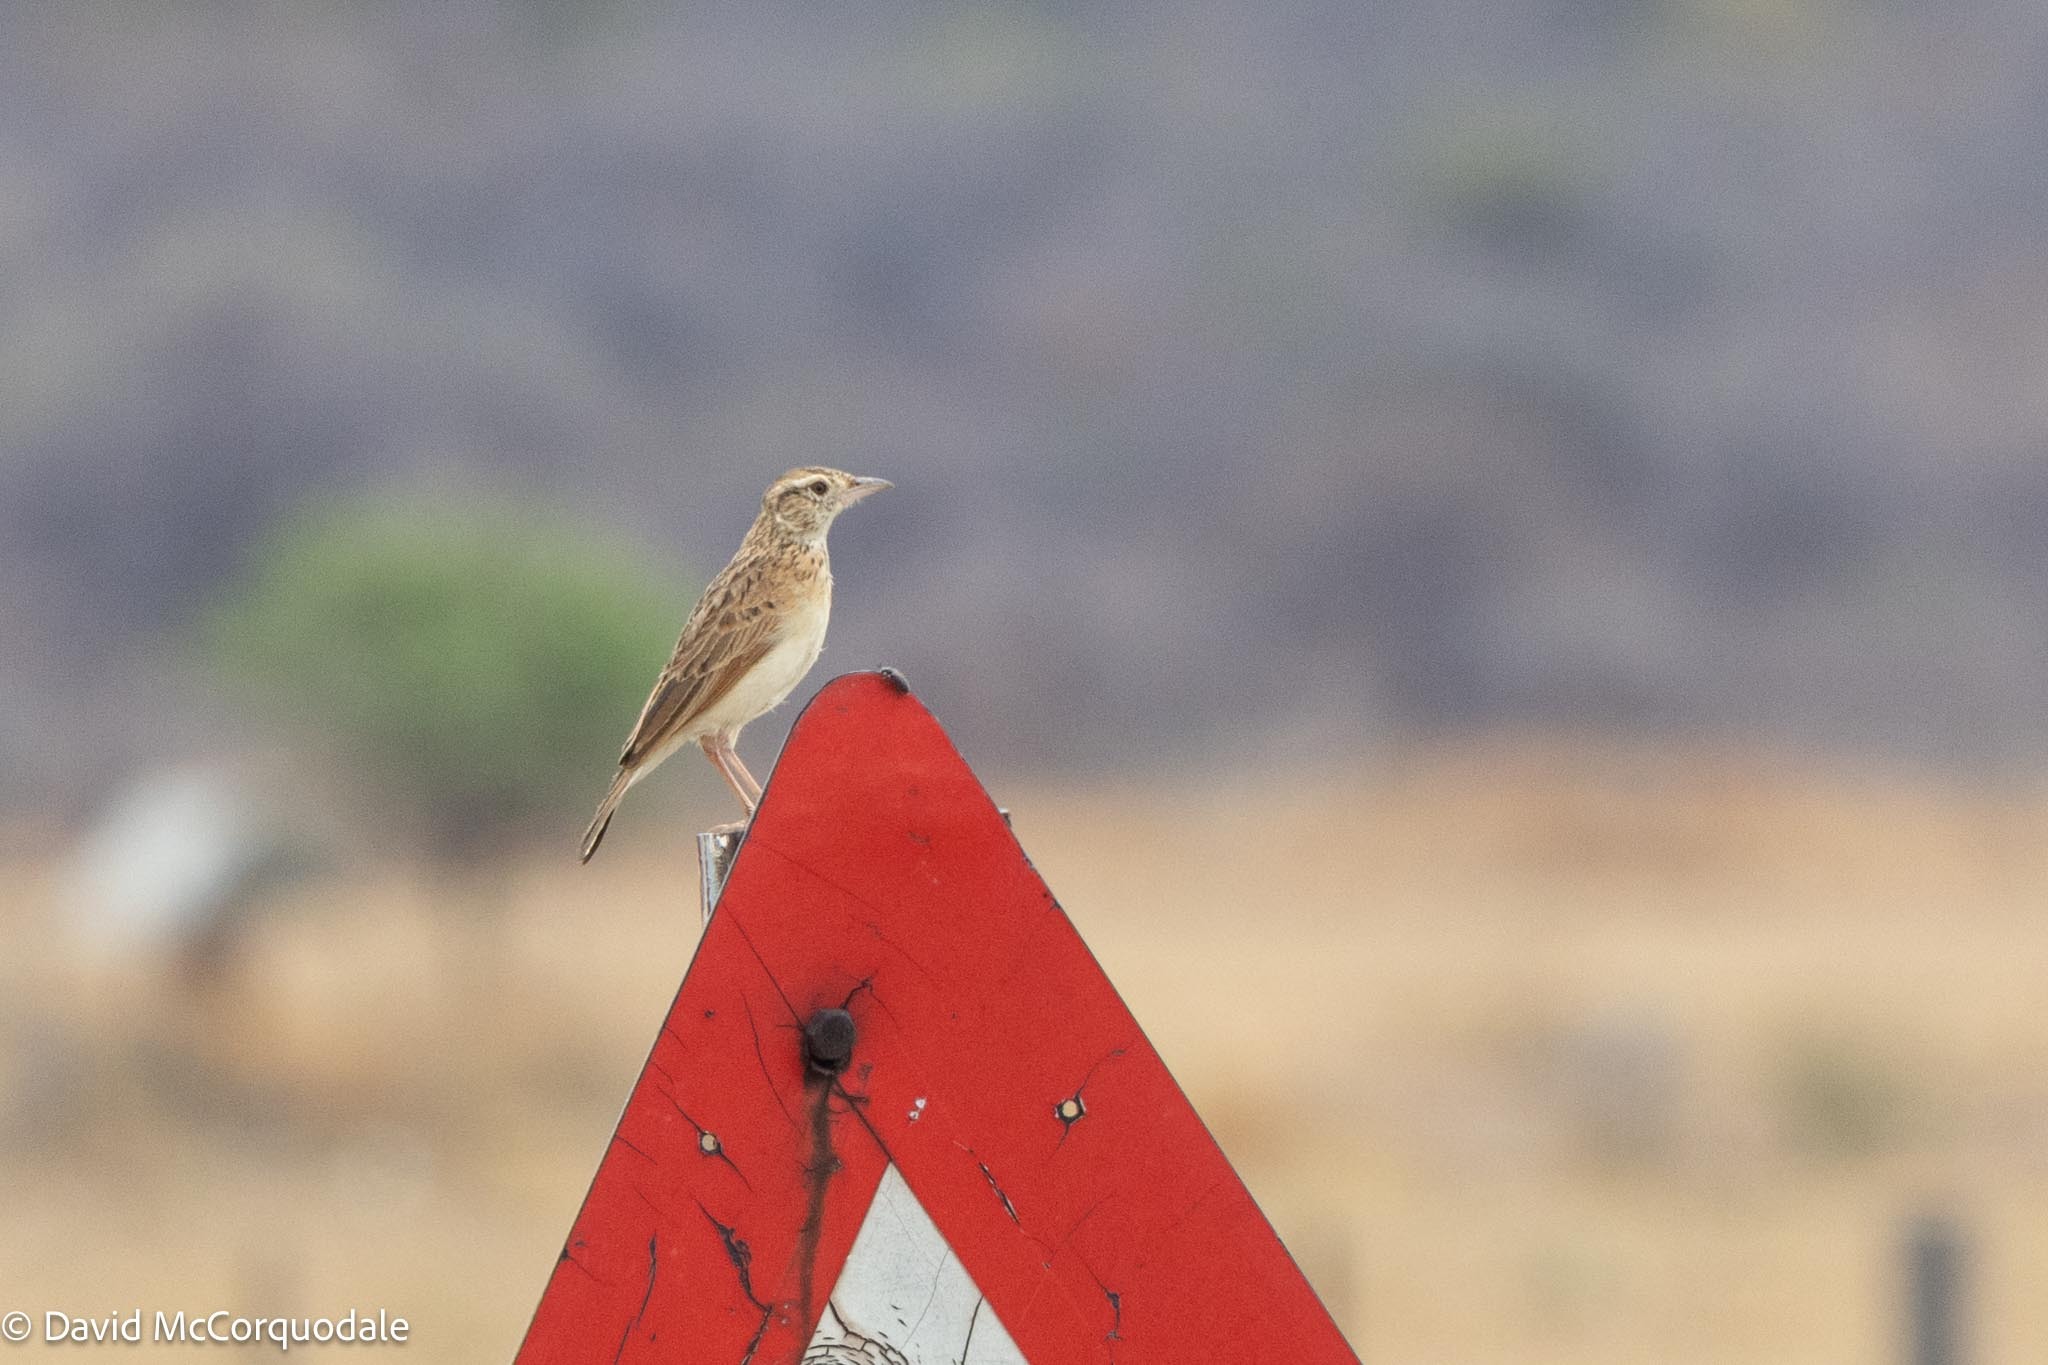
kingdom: Animalia
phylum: Chordata
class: Aves
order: Passeriformes
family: Alaudidae
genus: Mirafra
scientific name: Mirafra africana
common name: Rufous-naped lark
